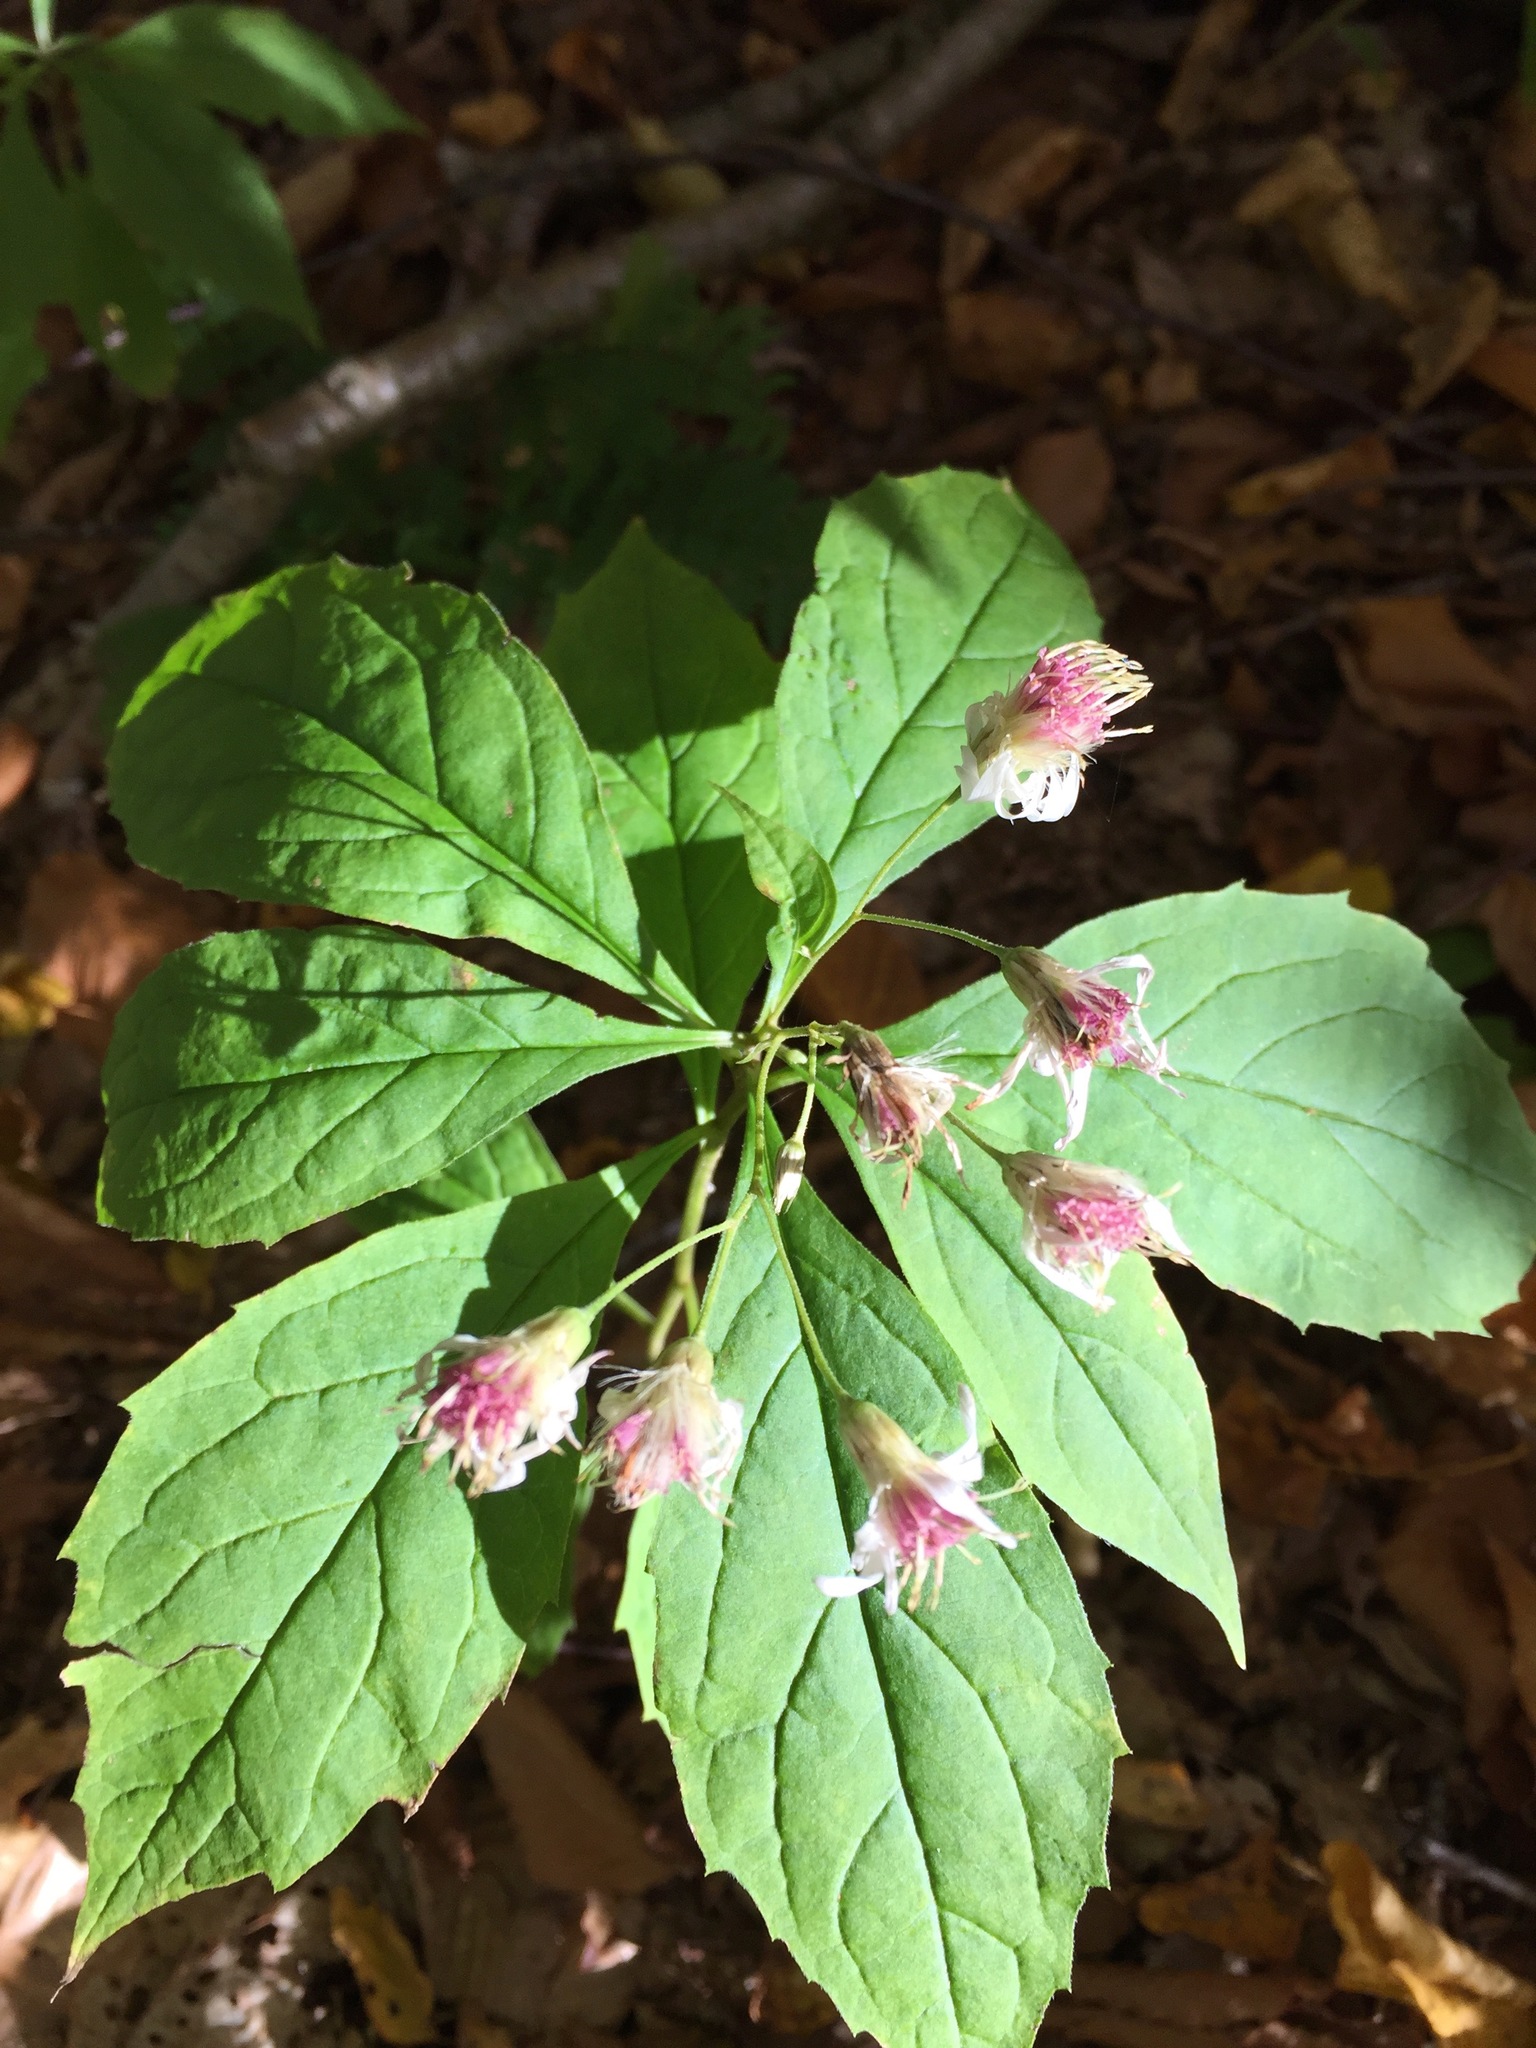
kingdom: Plantae
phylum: Tracheophyta
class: Magnoliopsida
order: Asterales
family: Asteraceae
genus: Oclemena
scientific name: Oclemena acuminata
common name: Mountain aster
